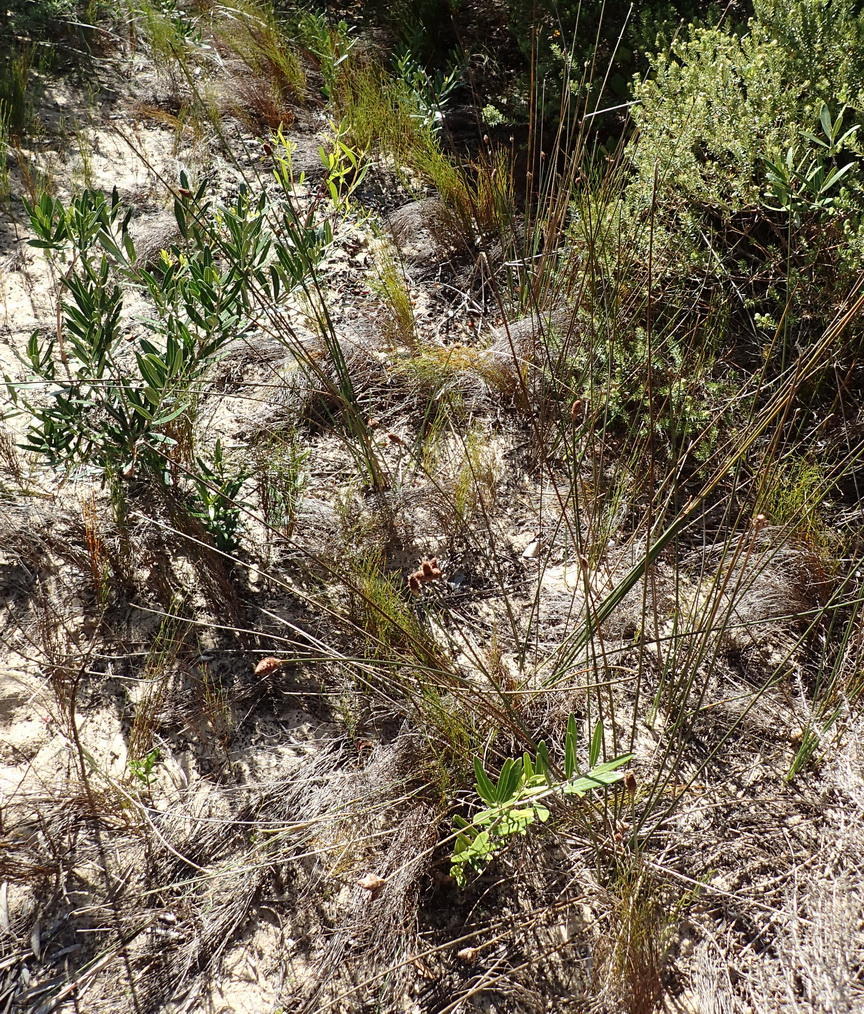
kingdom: Plantae
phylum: Tracheophyta
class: Liliopsida
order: Poales
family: Cyperaceae
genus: Hellmuthia
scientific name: Hellmuthia membranacea
